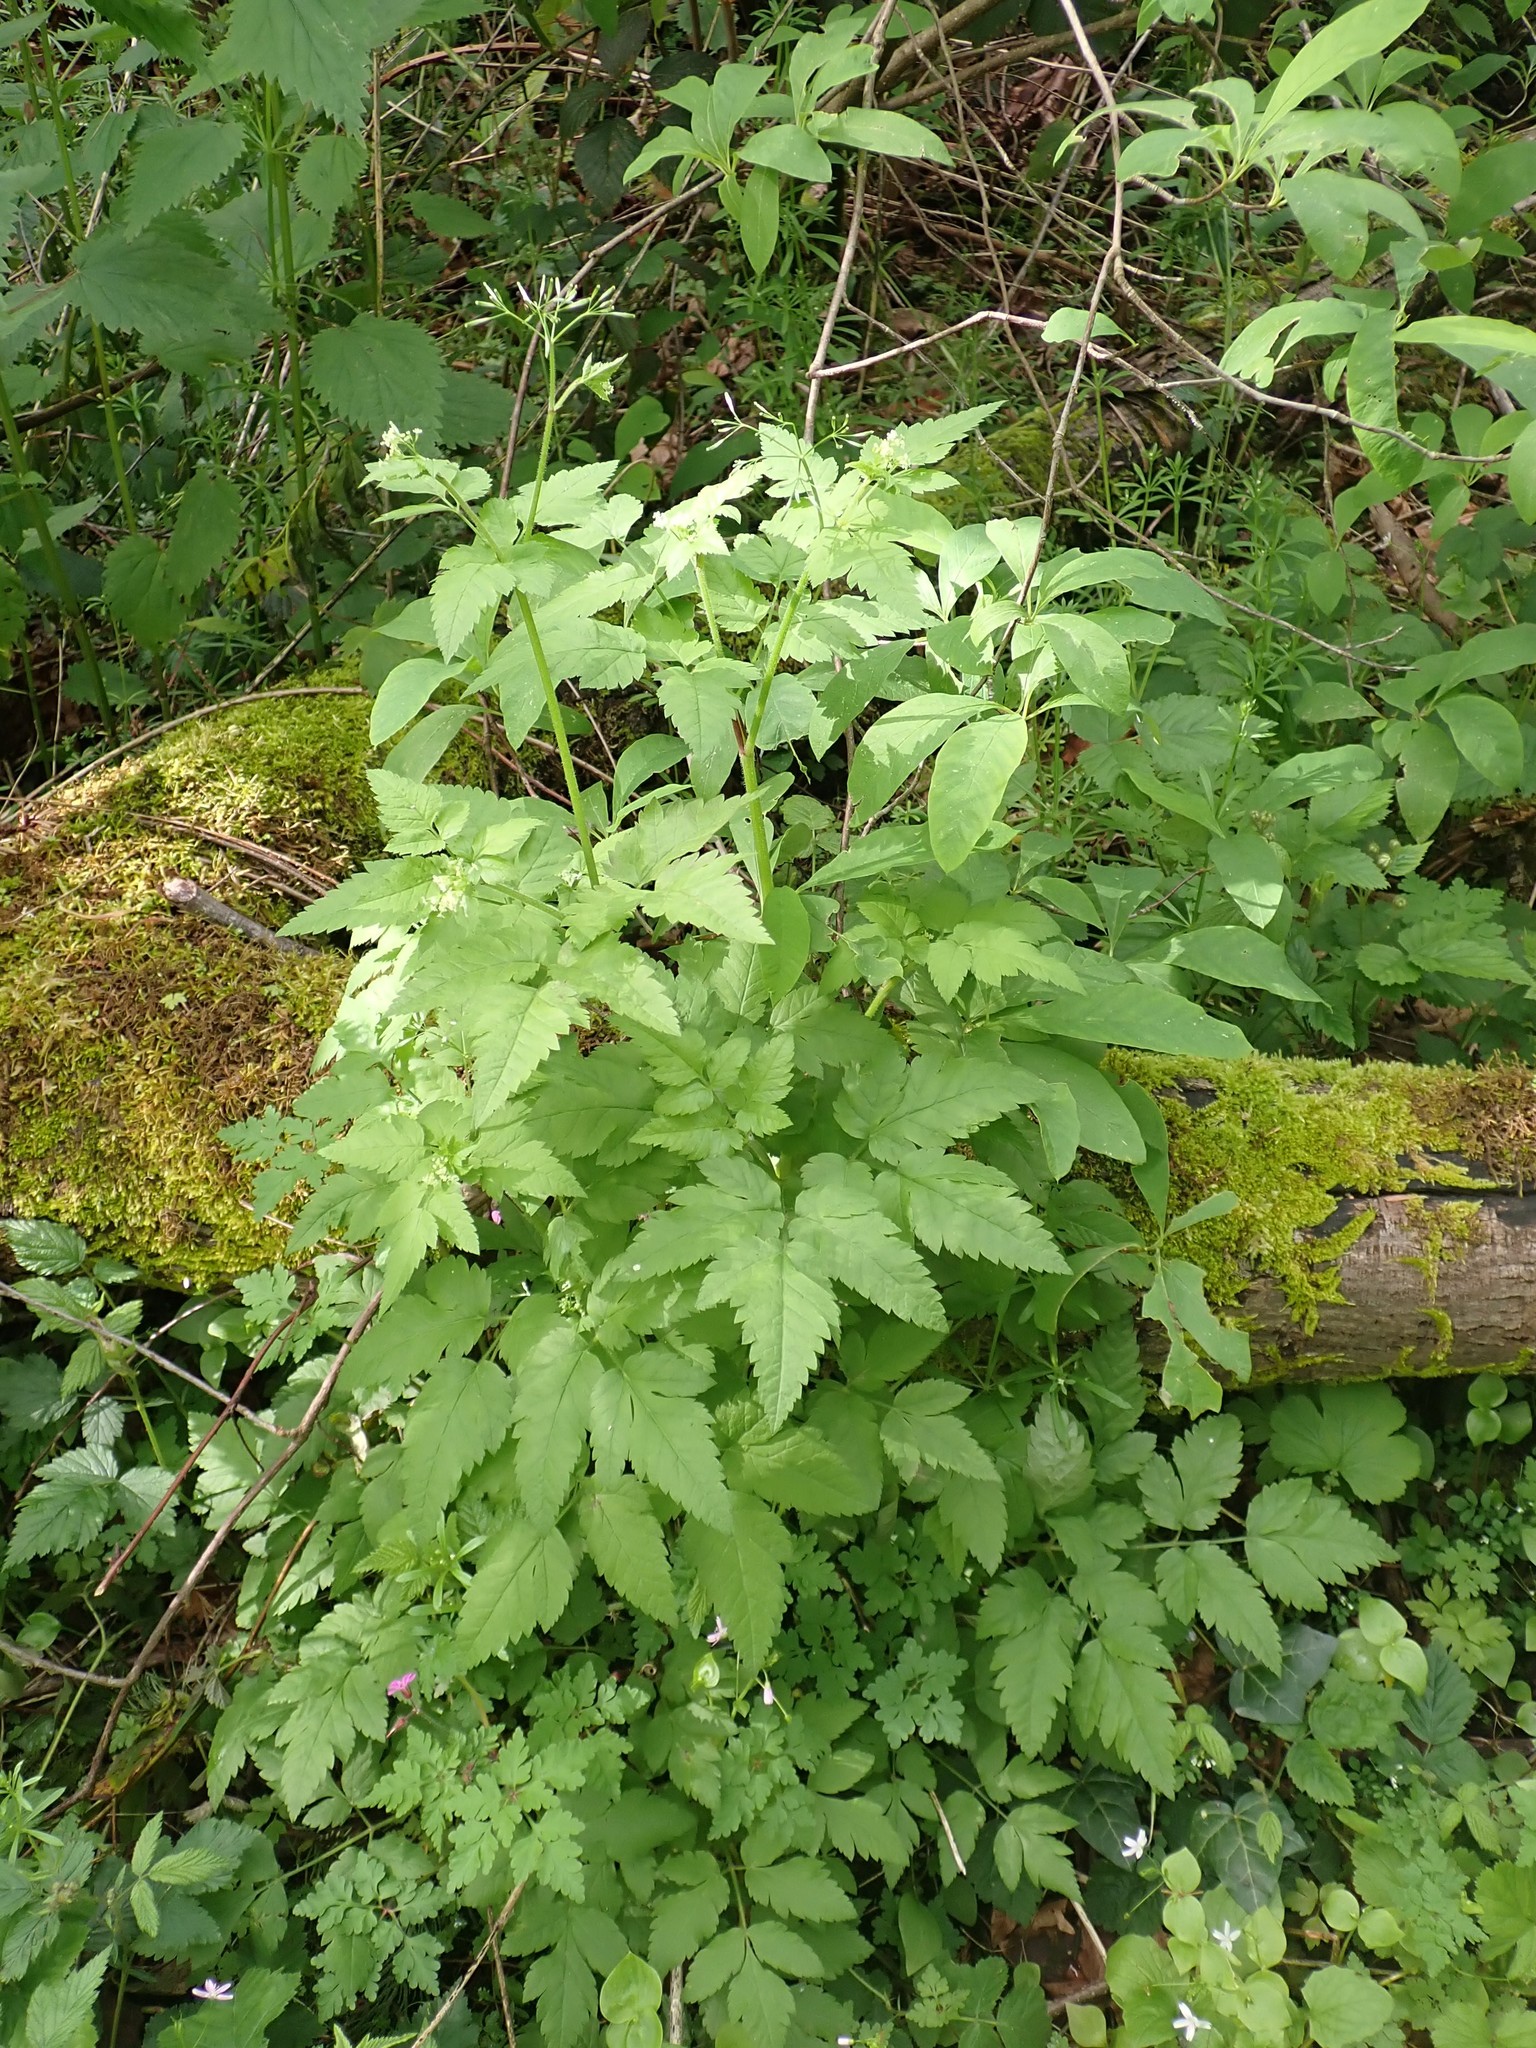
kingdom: Plantae
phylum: Tracheophyta
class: Magnoliopsida
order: Apiales
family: Apiaceae
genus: Osmorhiza
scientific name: Osmorhiza berteroi
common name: Mountain sweet cicely
